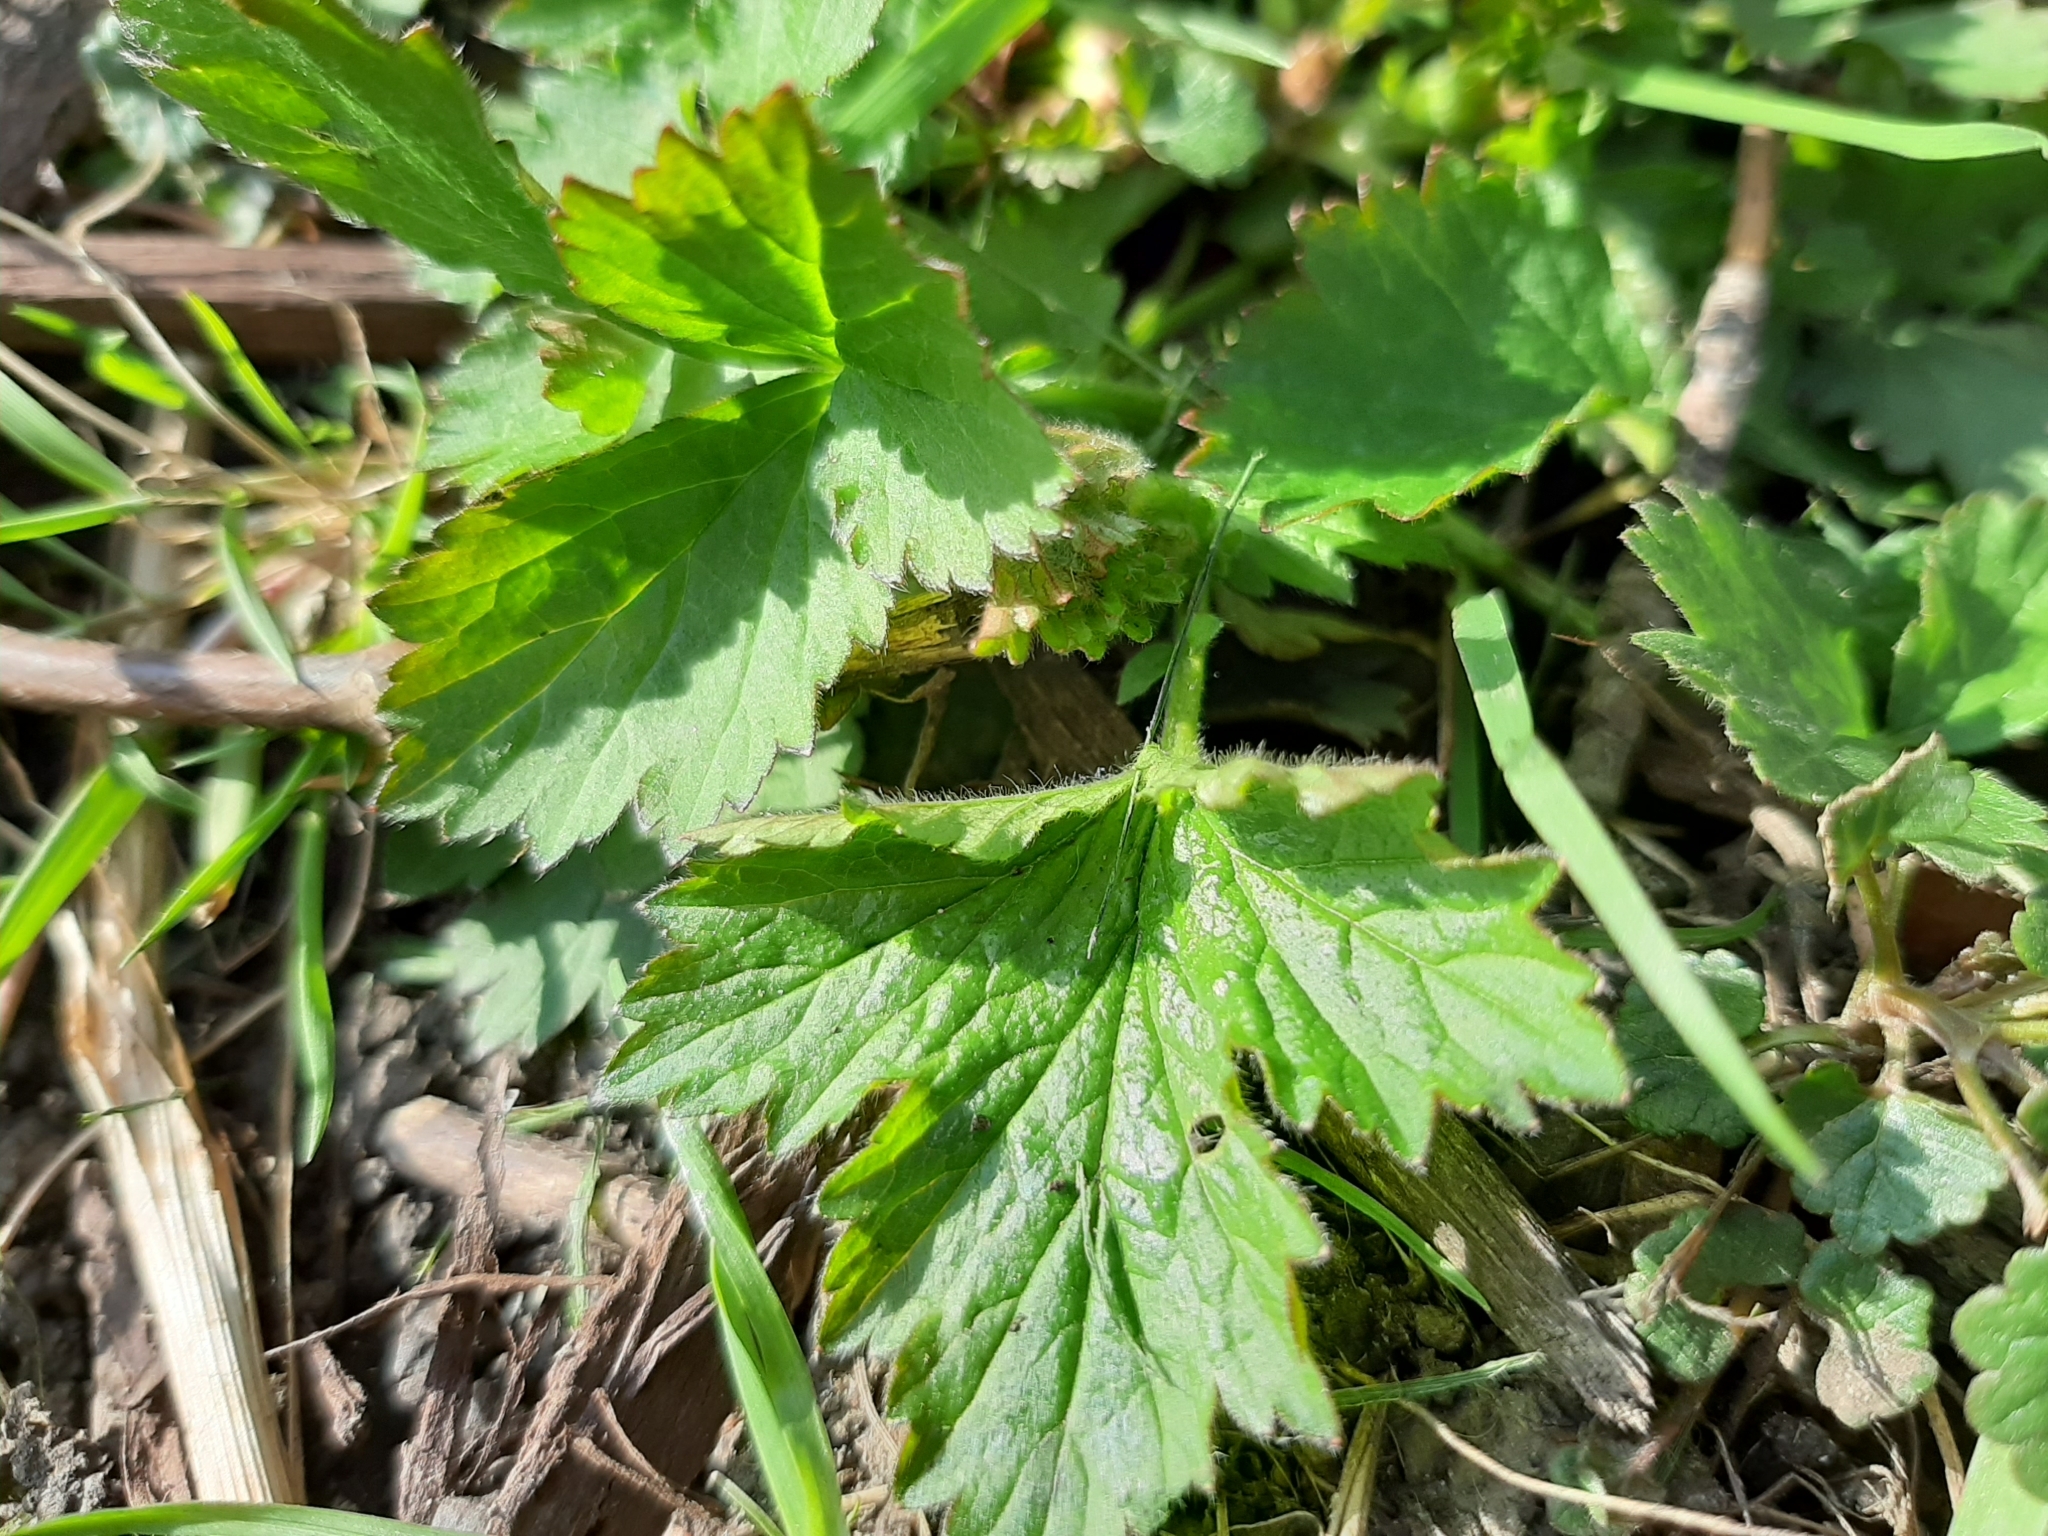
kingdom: Plantae
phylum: Tracheophyta
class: Magnoliopsida
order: Rosales
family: Rosaceae
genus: Potentilla
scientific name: Potentilla norvegica
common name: Ternate-leaved cinquefoil
